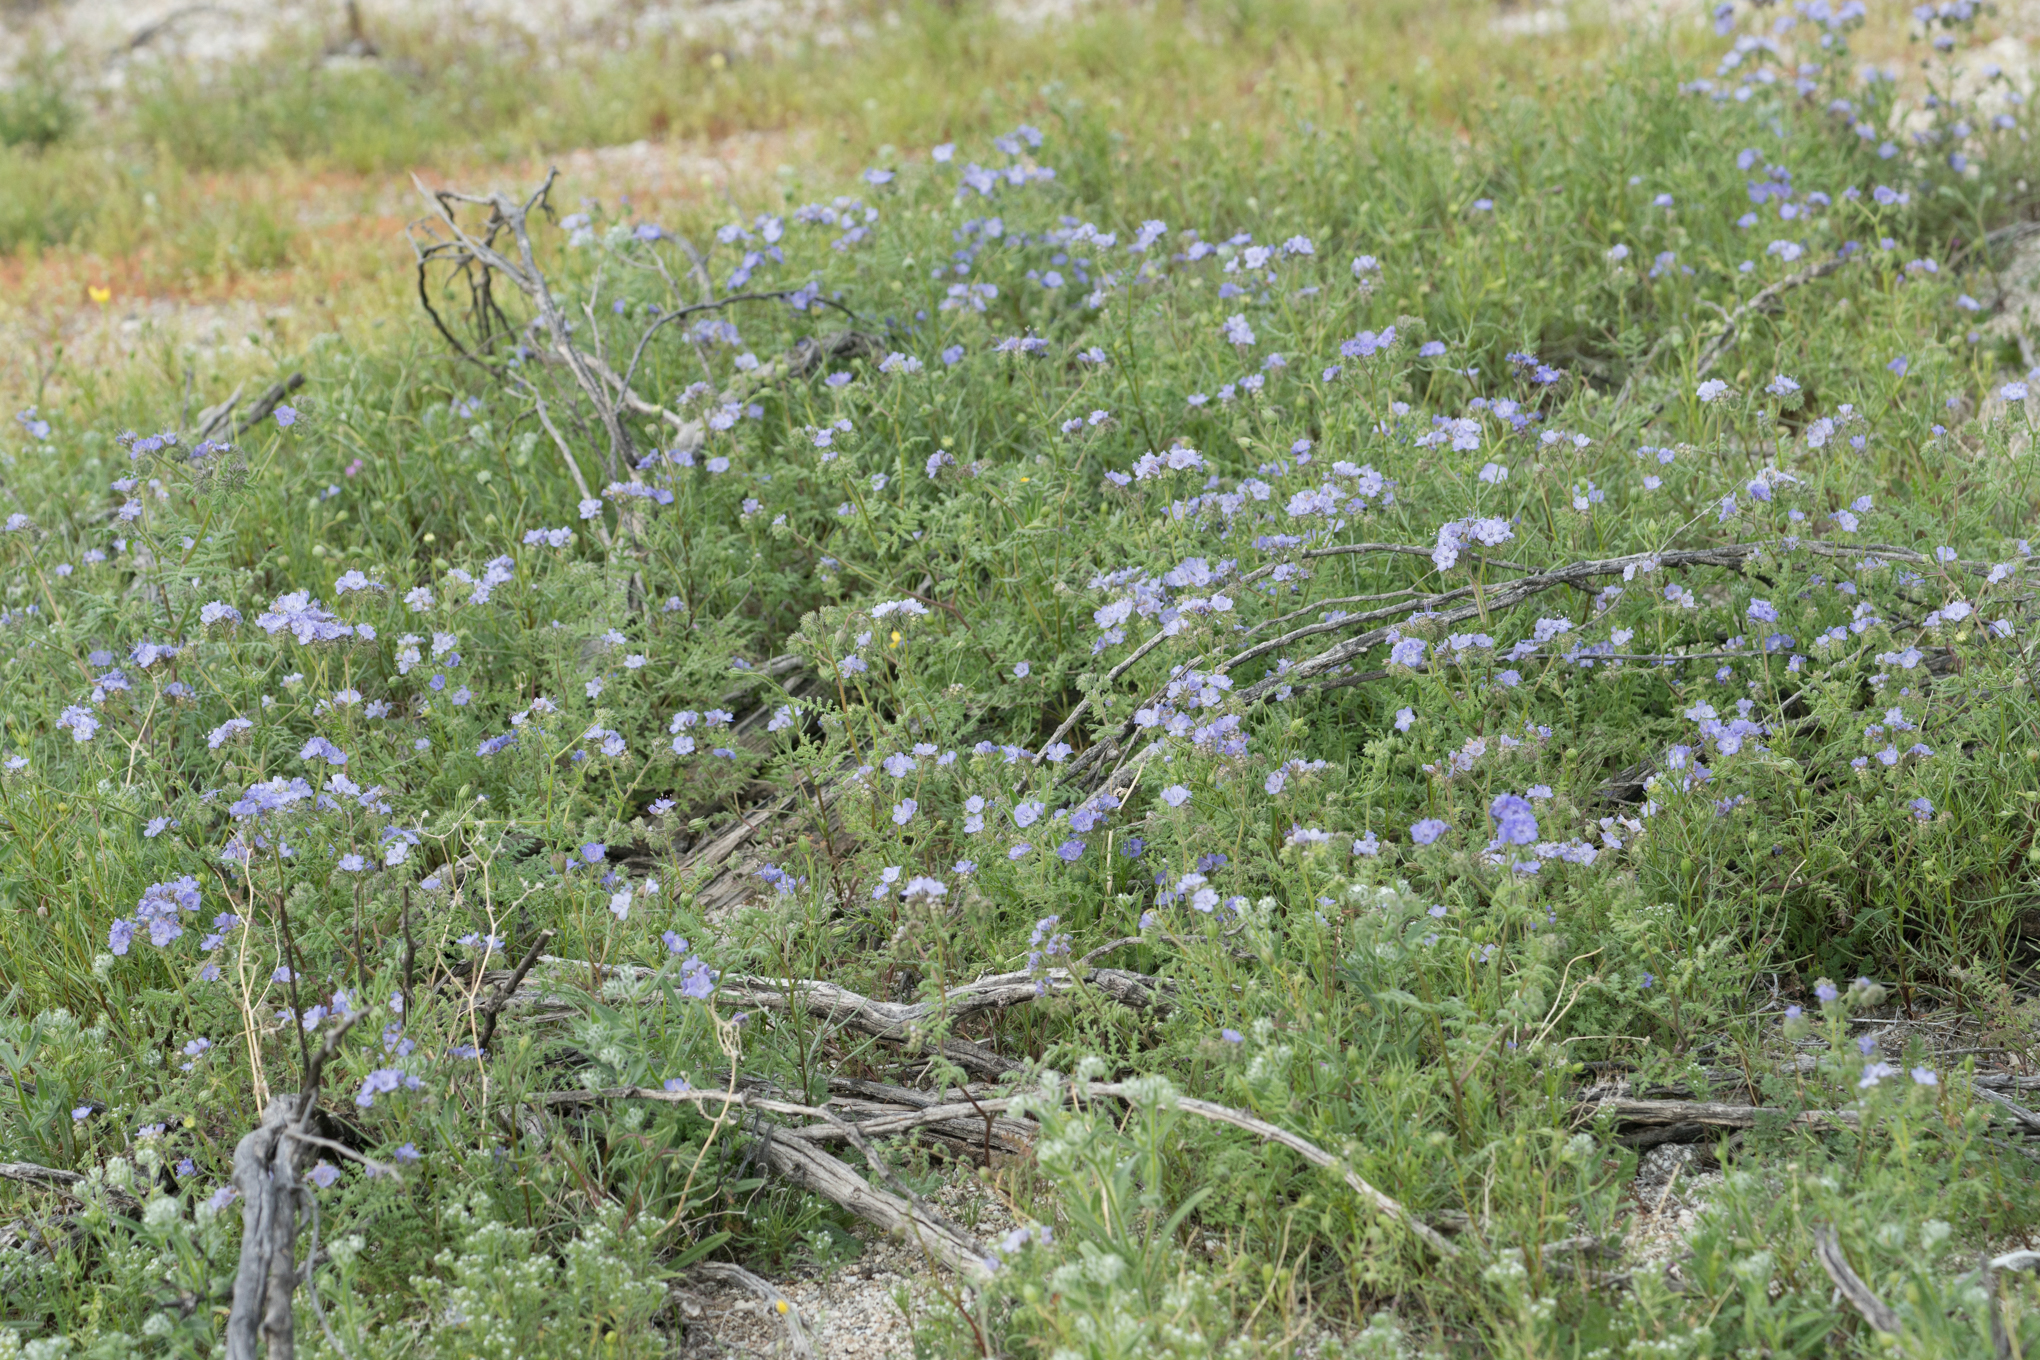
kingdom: Plantae
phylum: Tracheophyta
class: Magnoliopsida
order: Boraginales
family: Hydrophyllaceae
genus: Phacelia
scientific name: Phacelia distans
